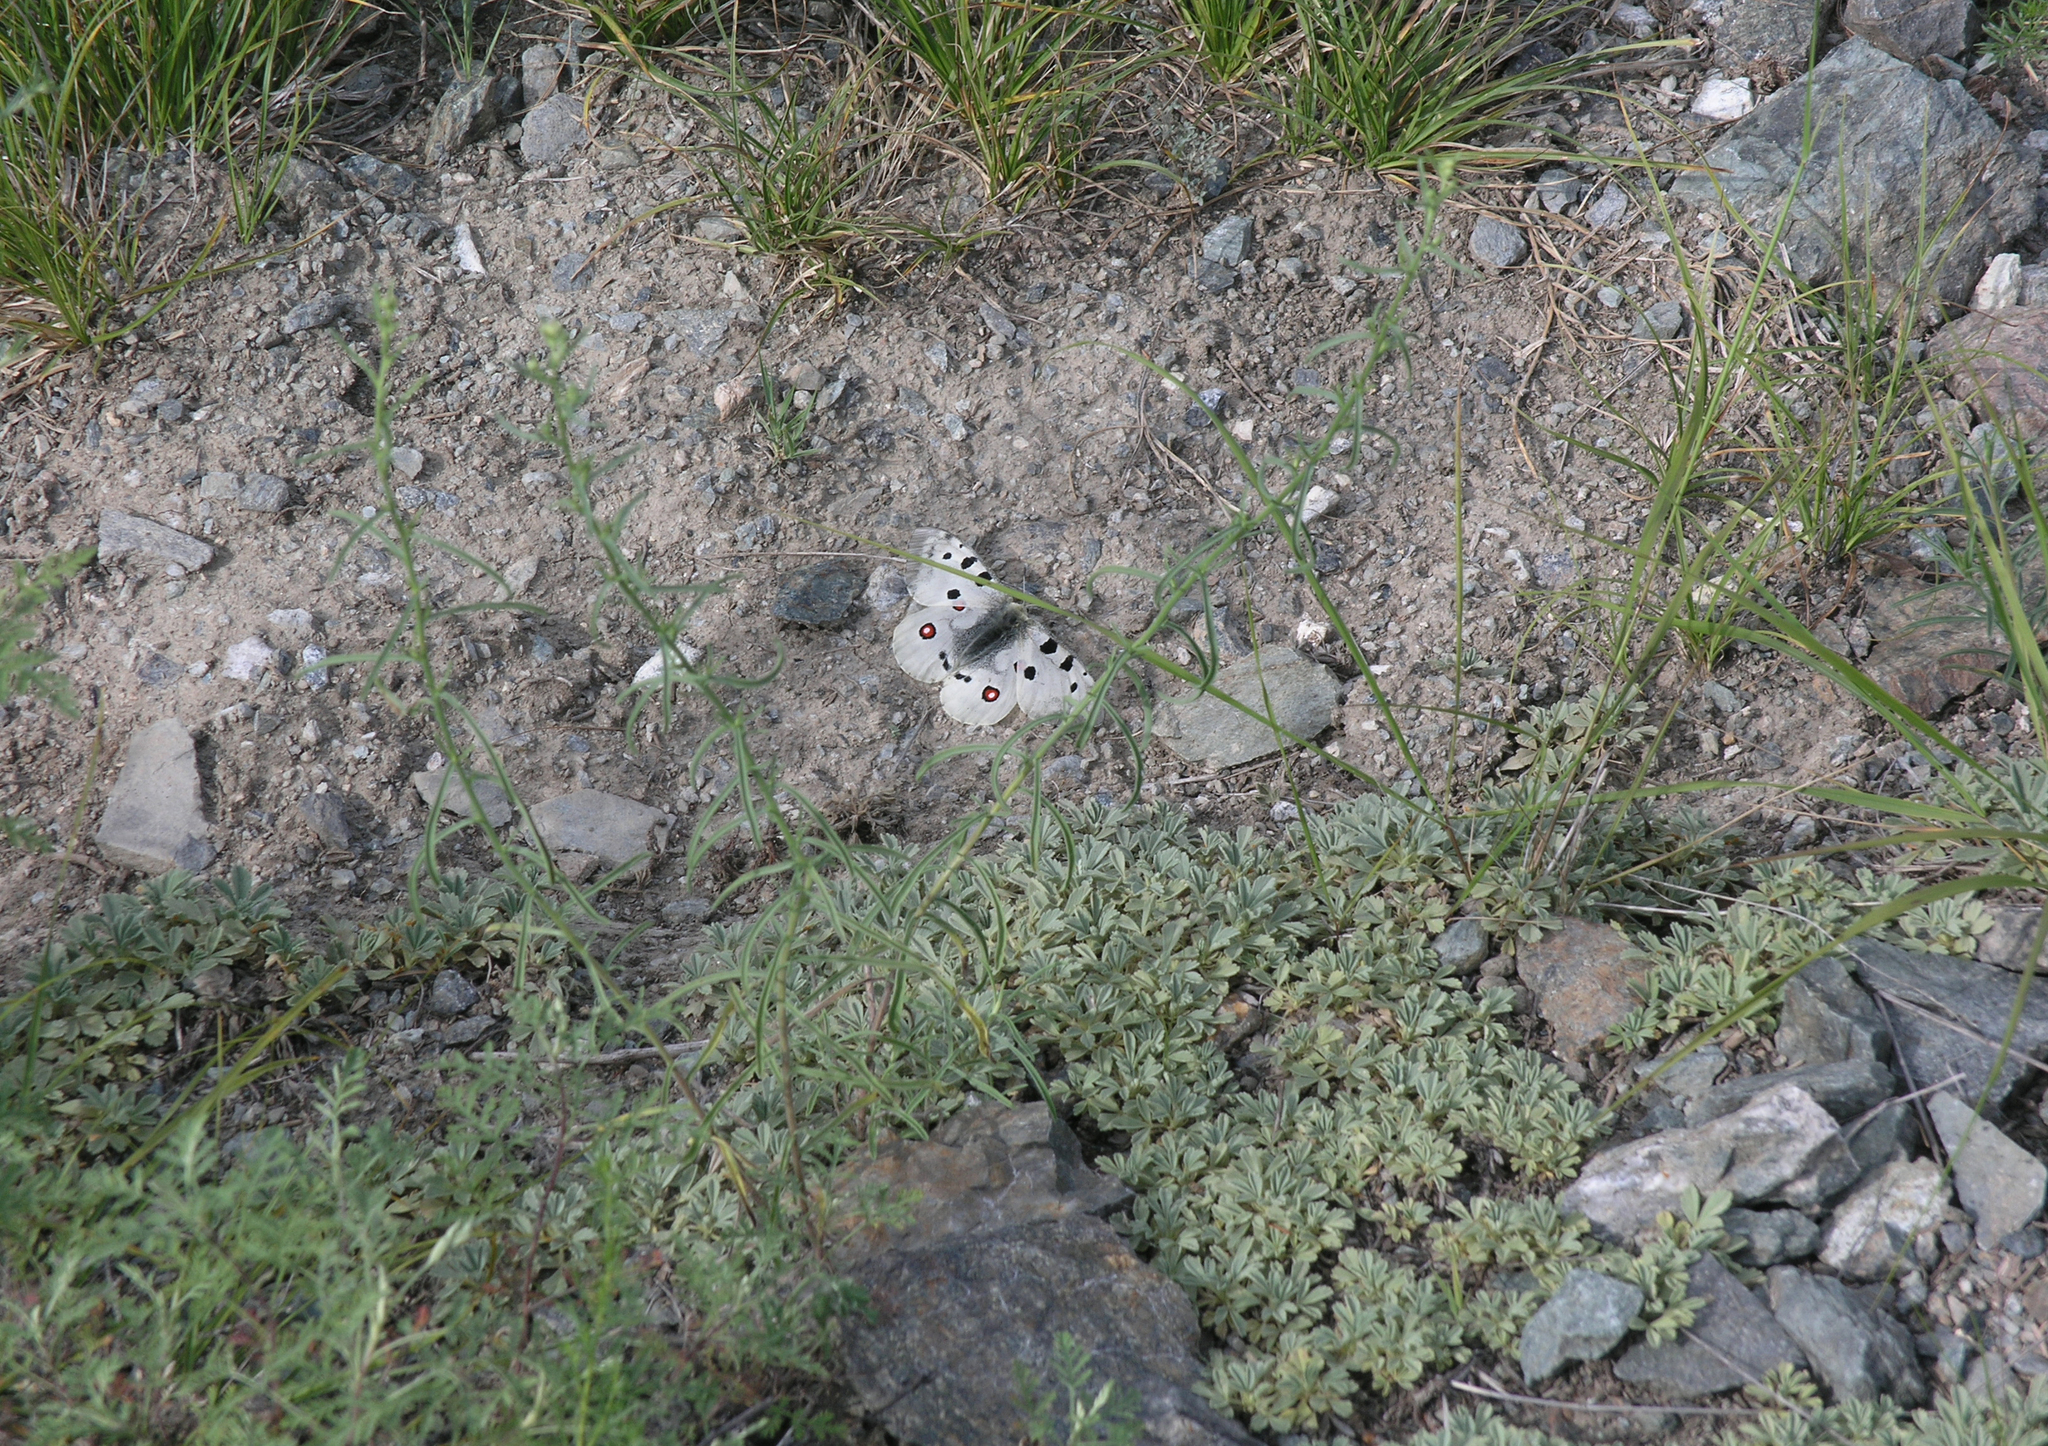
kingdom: Plantae
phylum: Tracheophyta
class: Magnoliopsida
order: Rosales
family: Rosaceae
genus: Potentilla
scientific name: Potentilla acaulis
